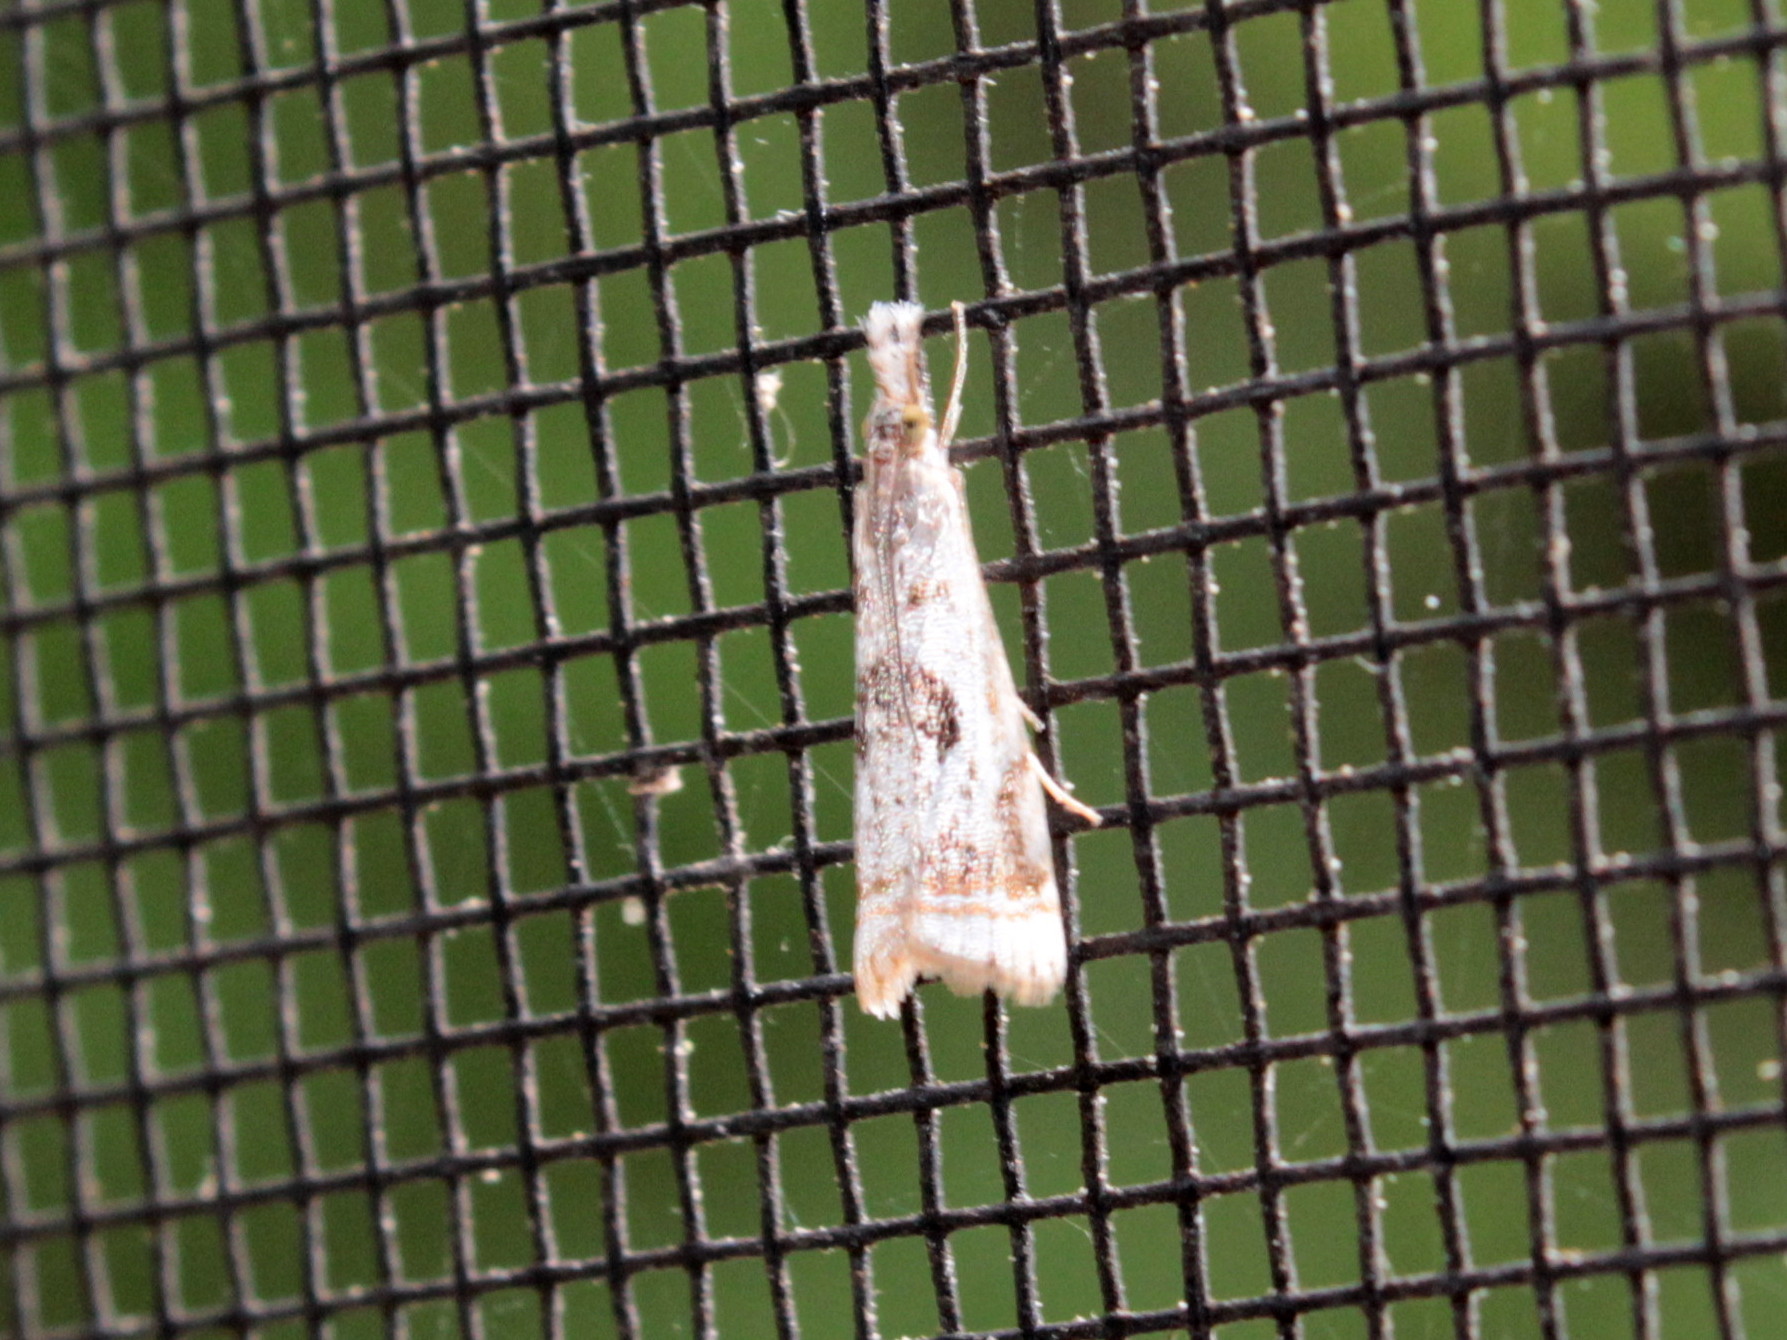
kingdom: Animalia
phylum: Arthropoda
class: Insecta
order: Lepidoptera
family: Crambidae
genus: Microcrambus
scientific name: Microcrambus elegans
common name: Elegant grass-veneer
